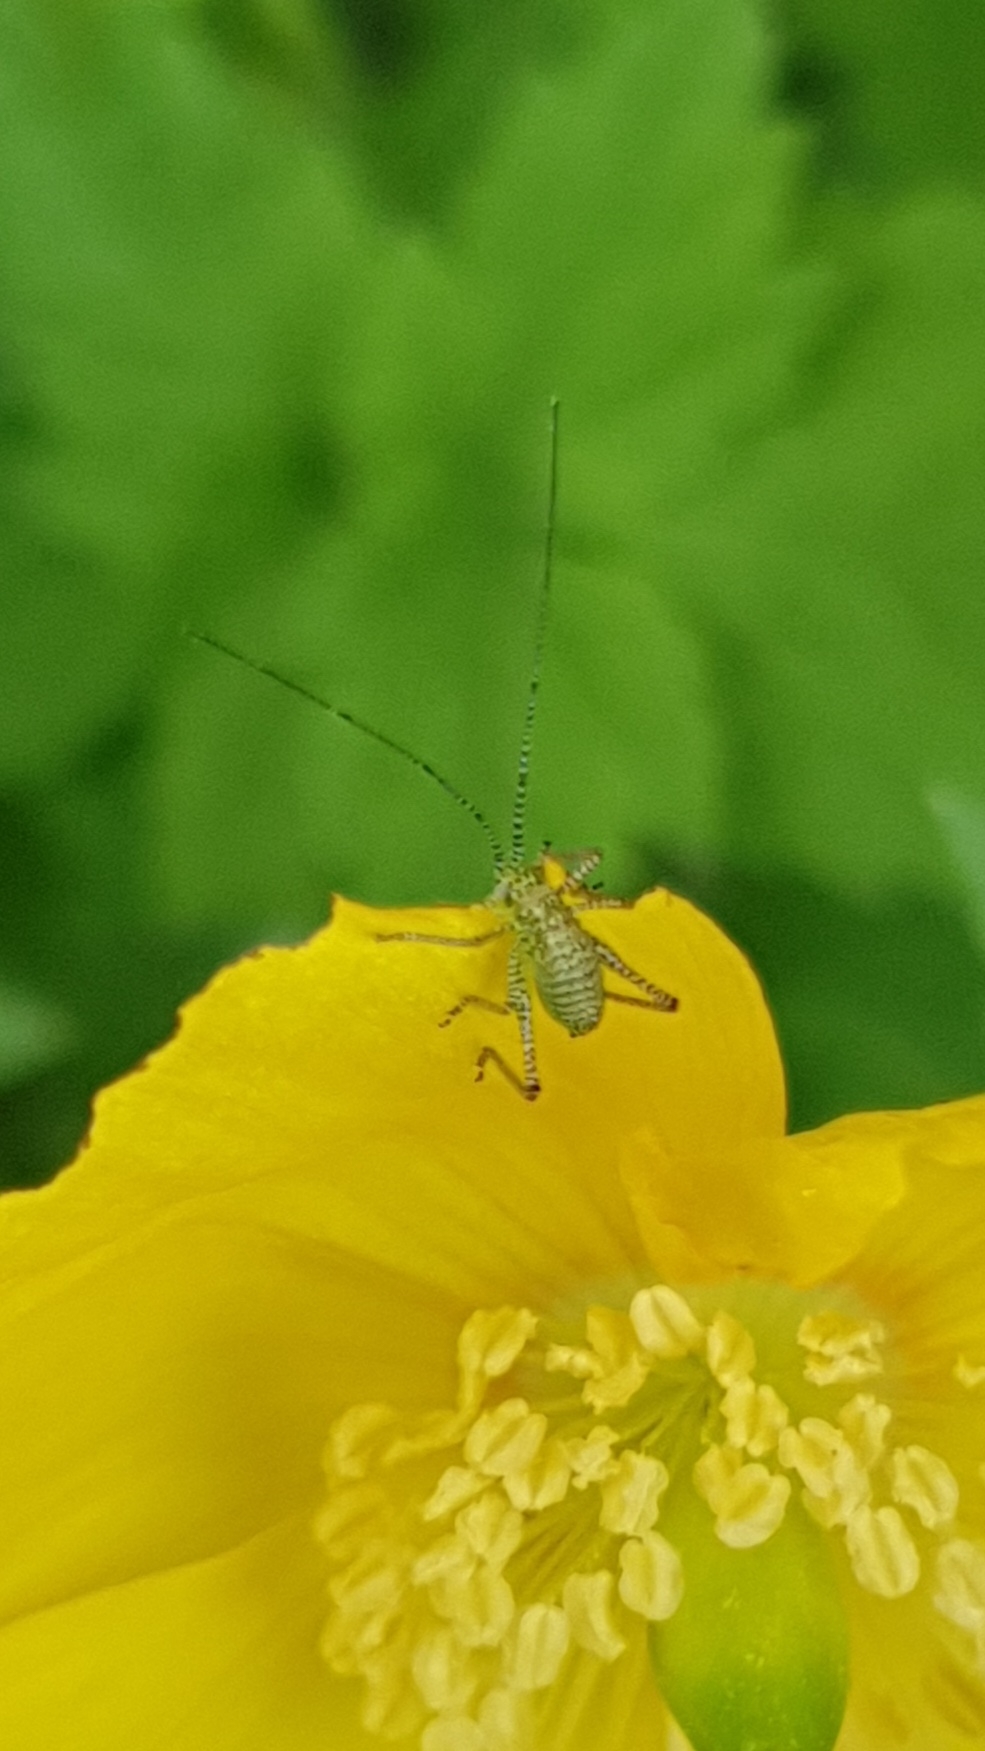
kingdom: Animalia
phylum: Arthropoda
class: Insecta
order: Orthoptera
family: Tettigoniidae
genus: Leptophyes
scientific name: Leptophyes punctatissima
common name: Speckled bush-cricket
